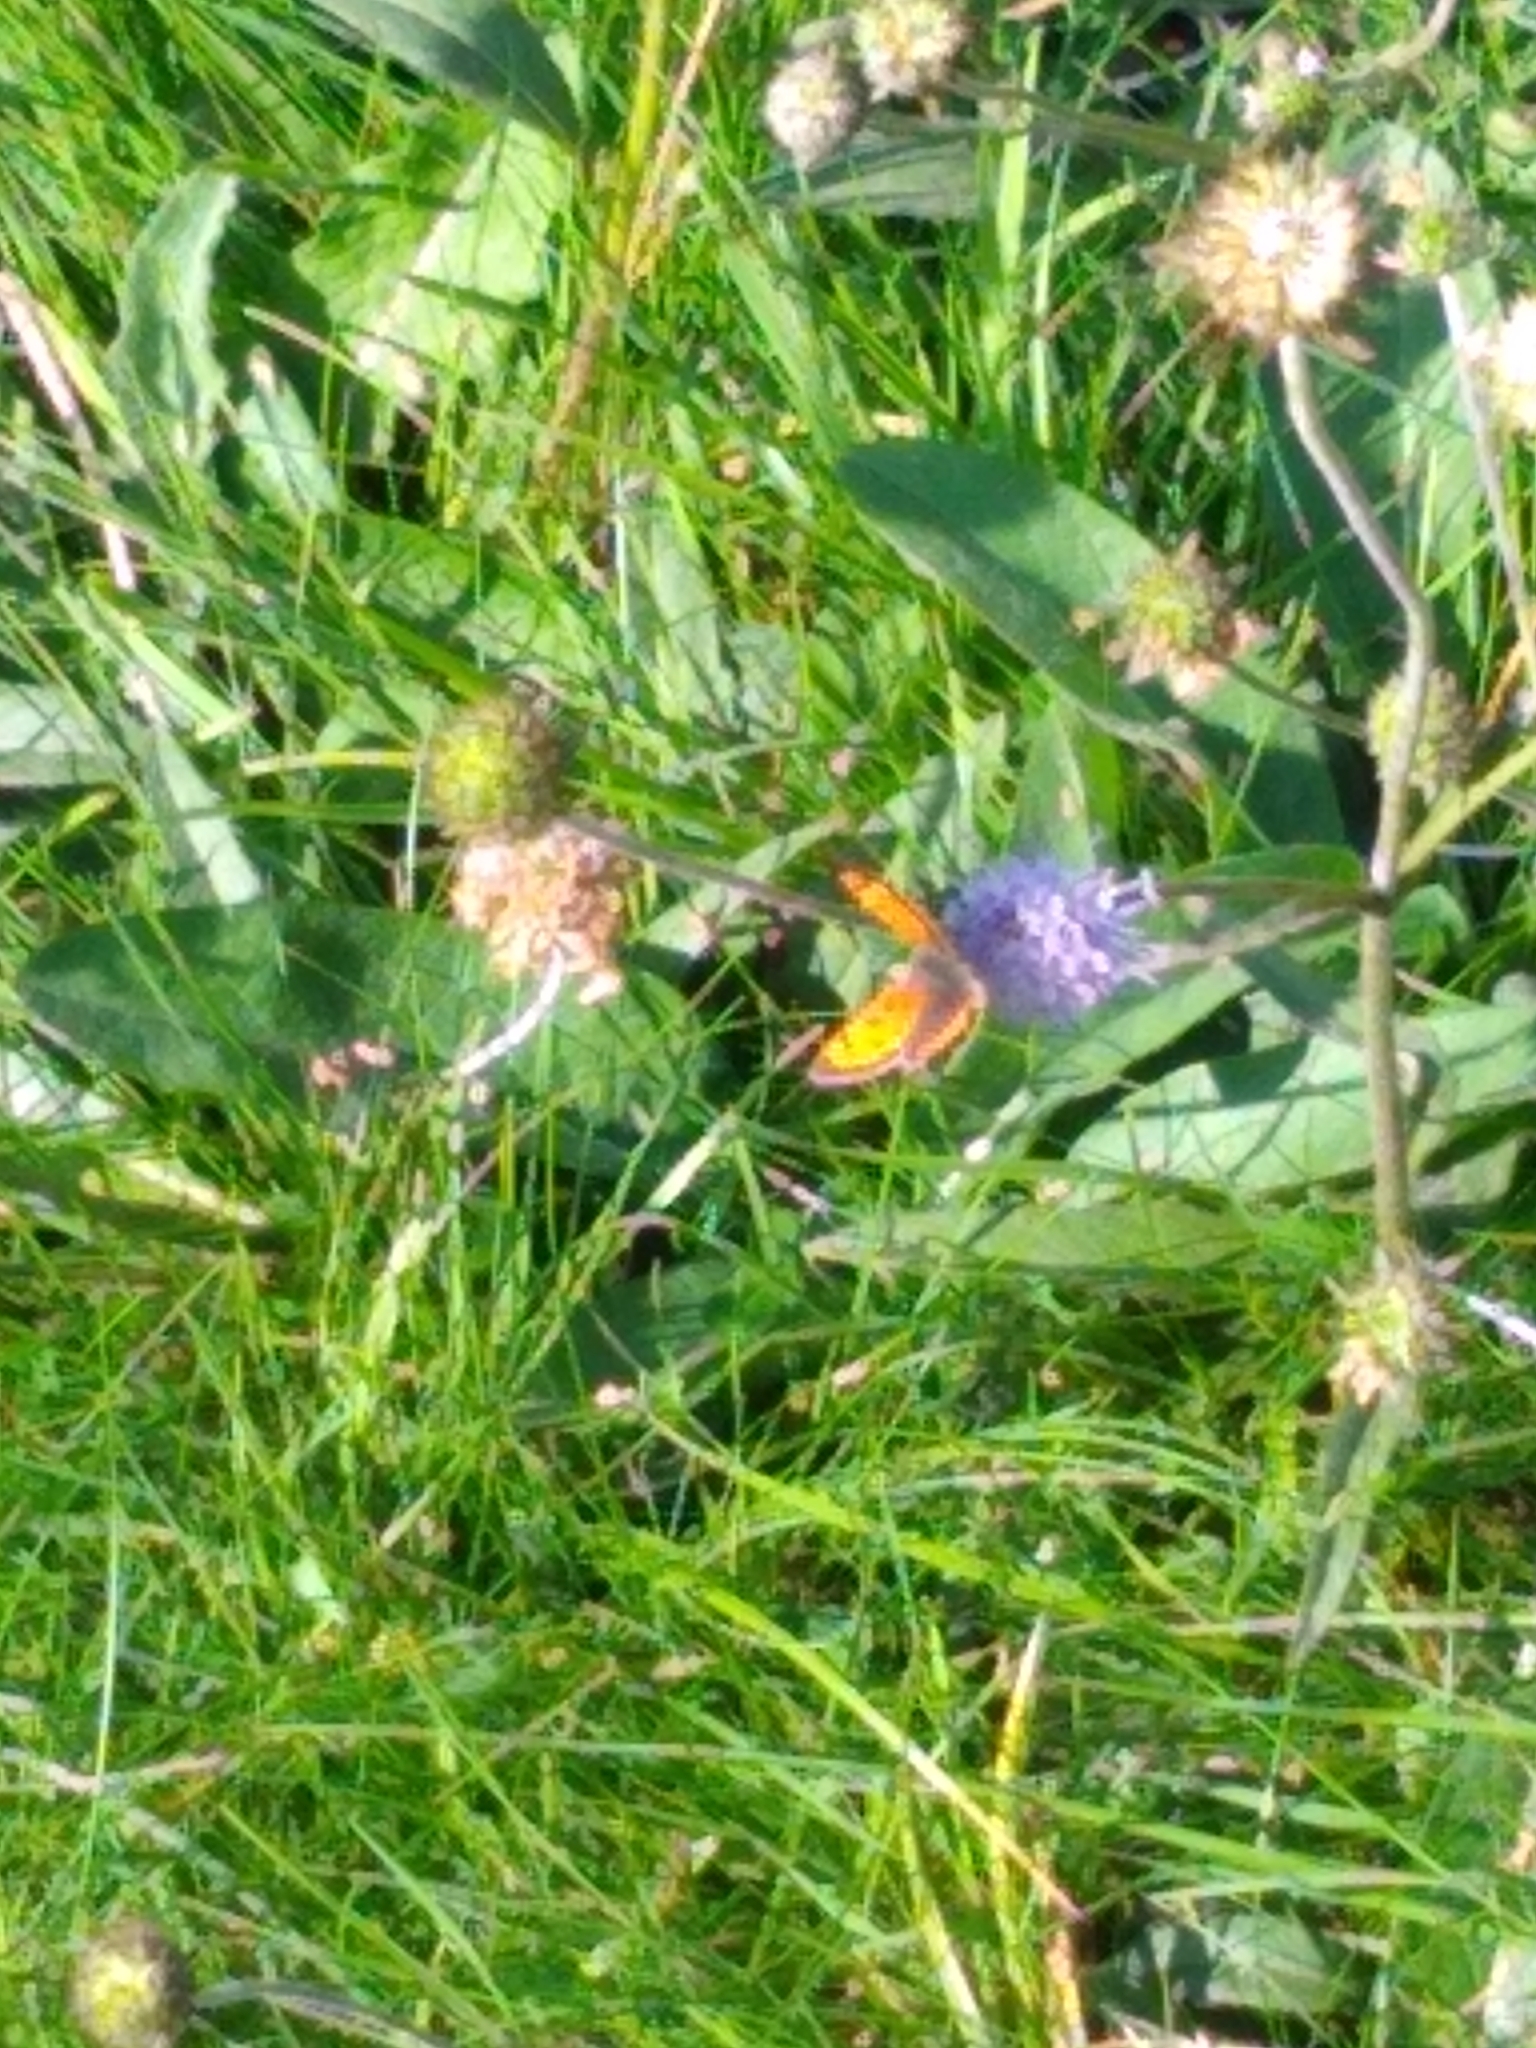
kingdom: Animalia
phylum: Arthropoda
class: Insecta
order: Lepidoptera
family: Lycaenidae
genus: Lycaena
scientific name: Lycaena phlaeas
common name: Small copper
